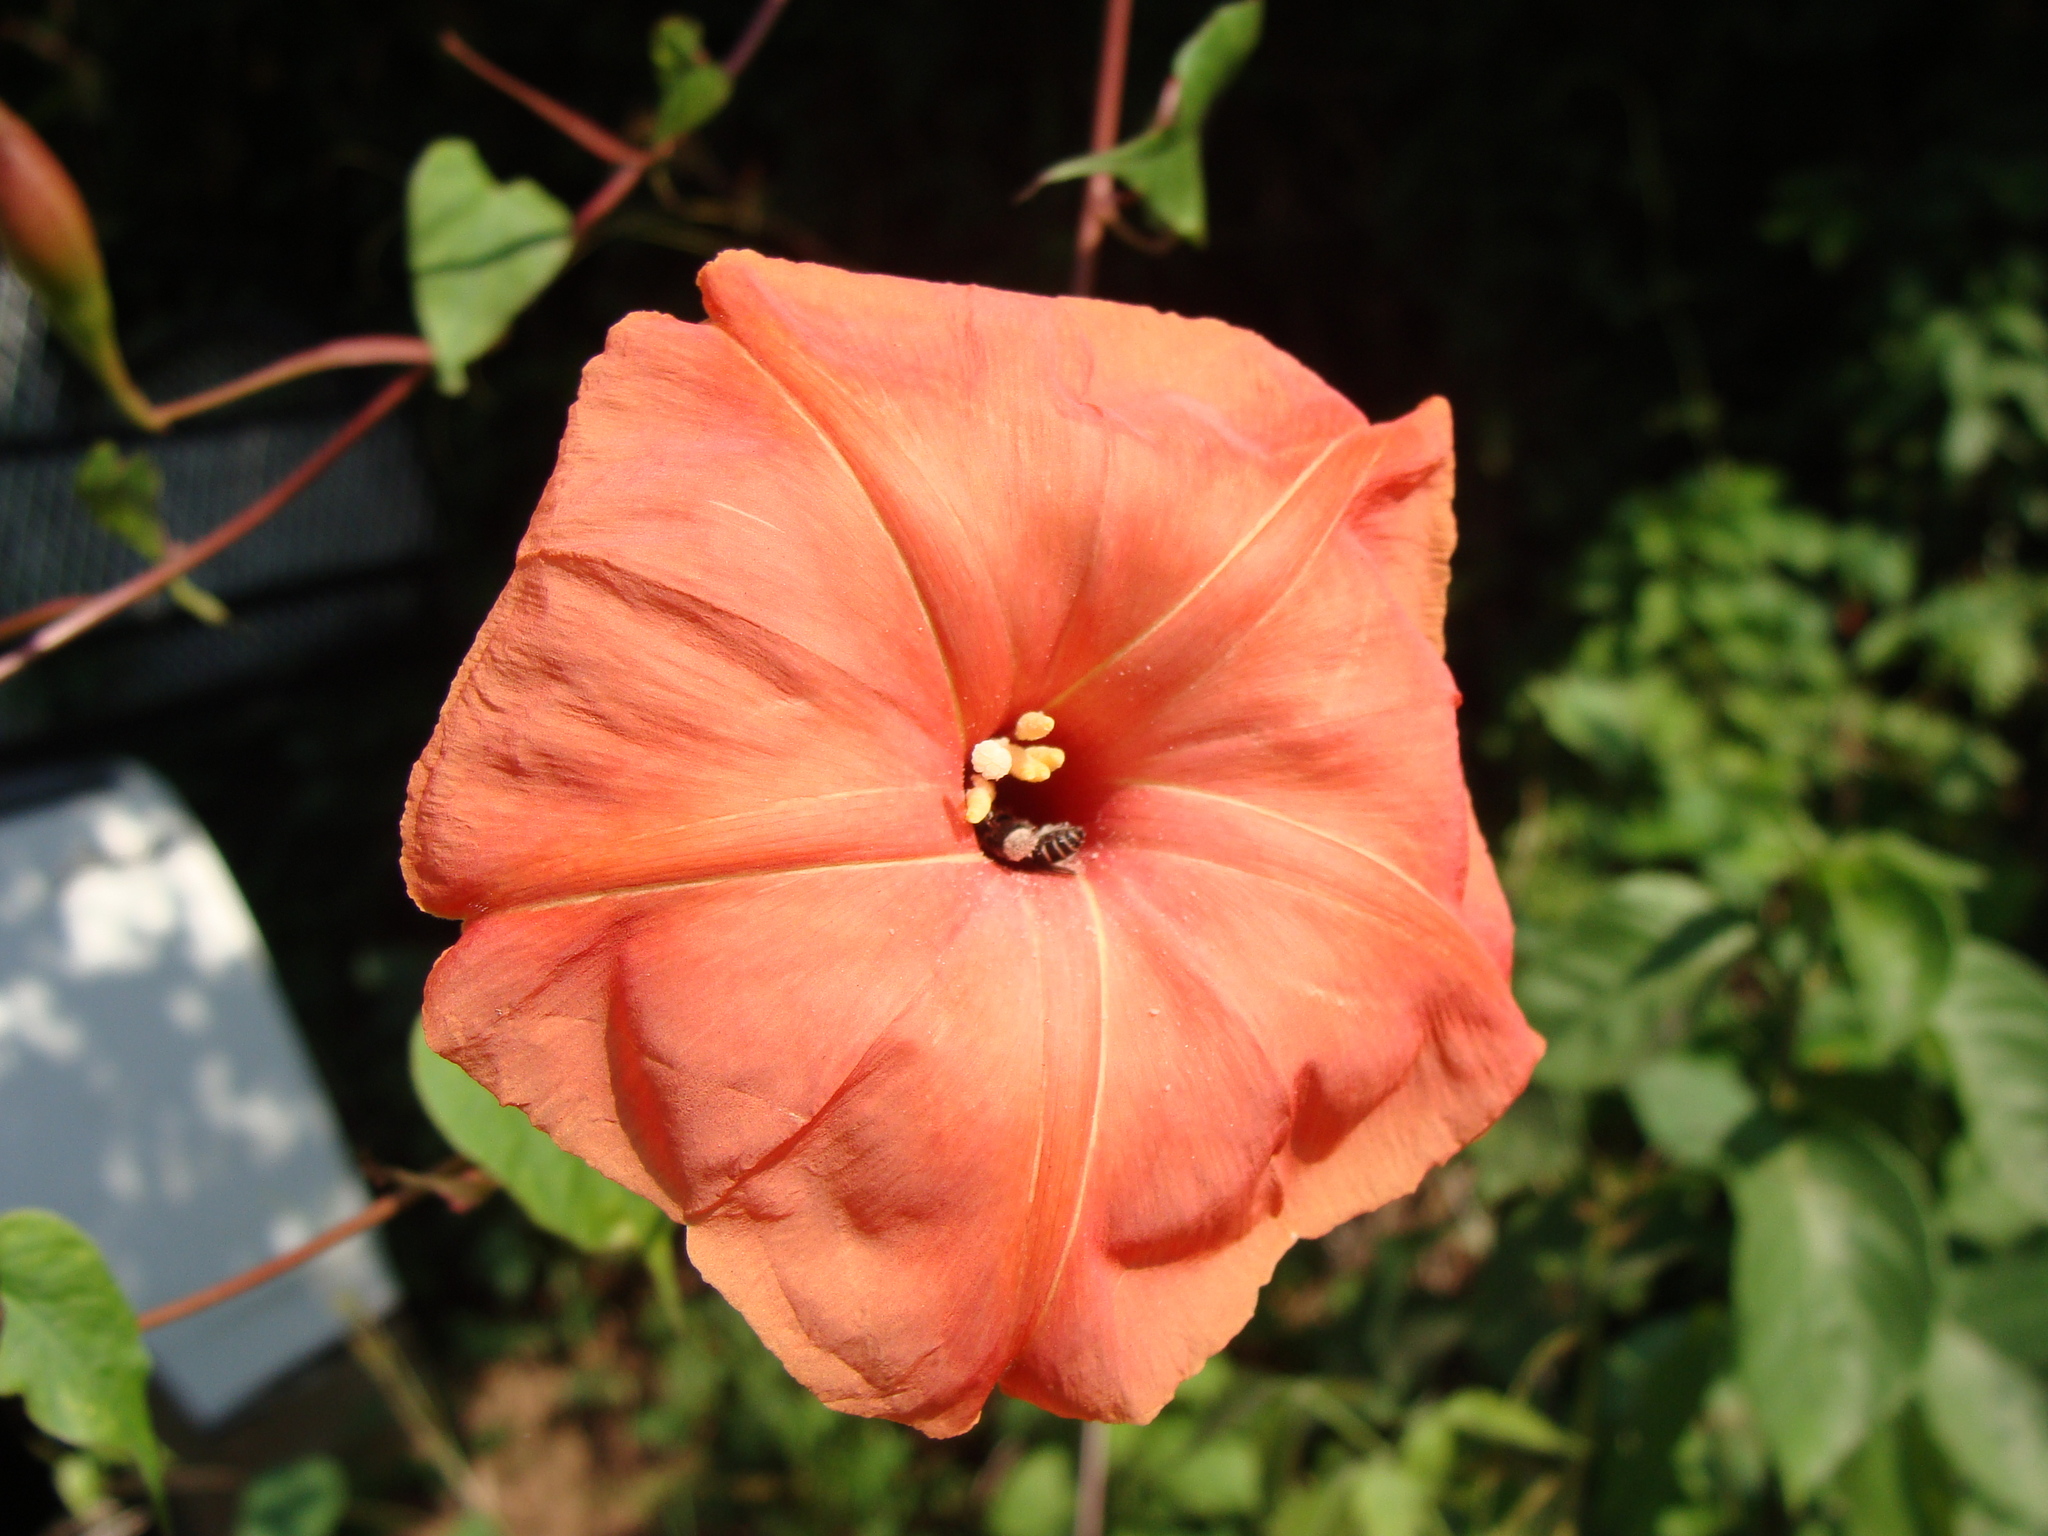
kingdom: Plantae
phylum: Tracheophyta
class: Magnoliopsida
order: Solanales
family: Convolvulaceae
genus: Operculina
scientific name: Operculina pteripes
